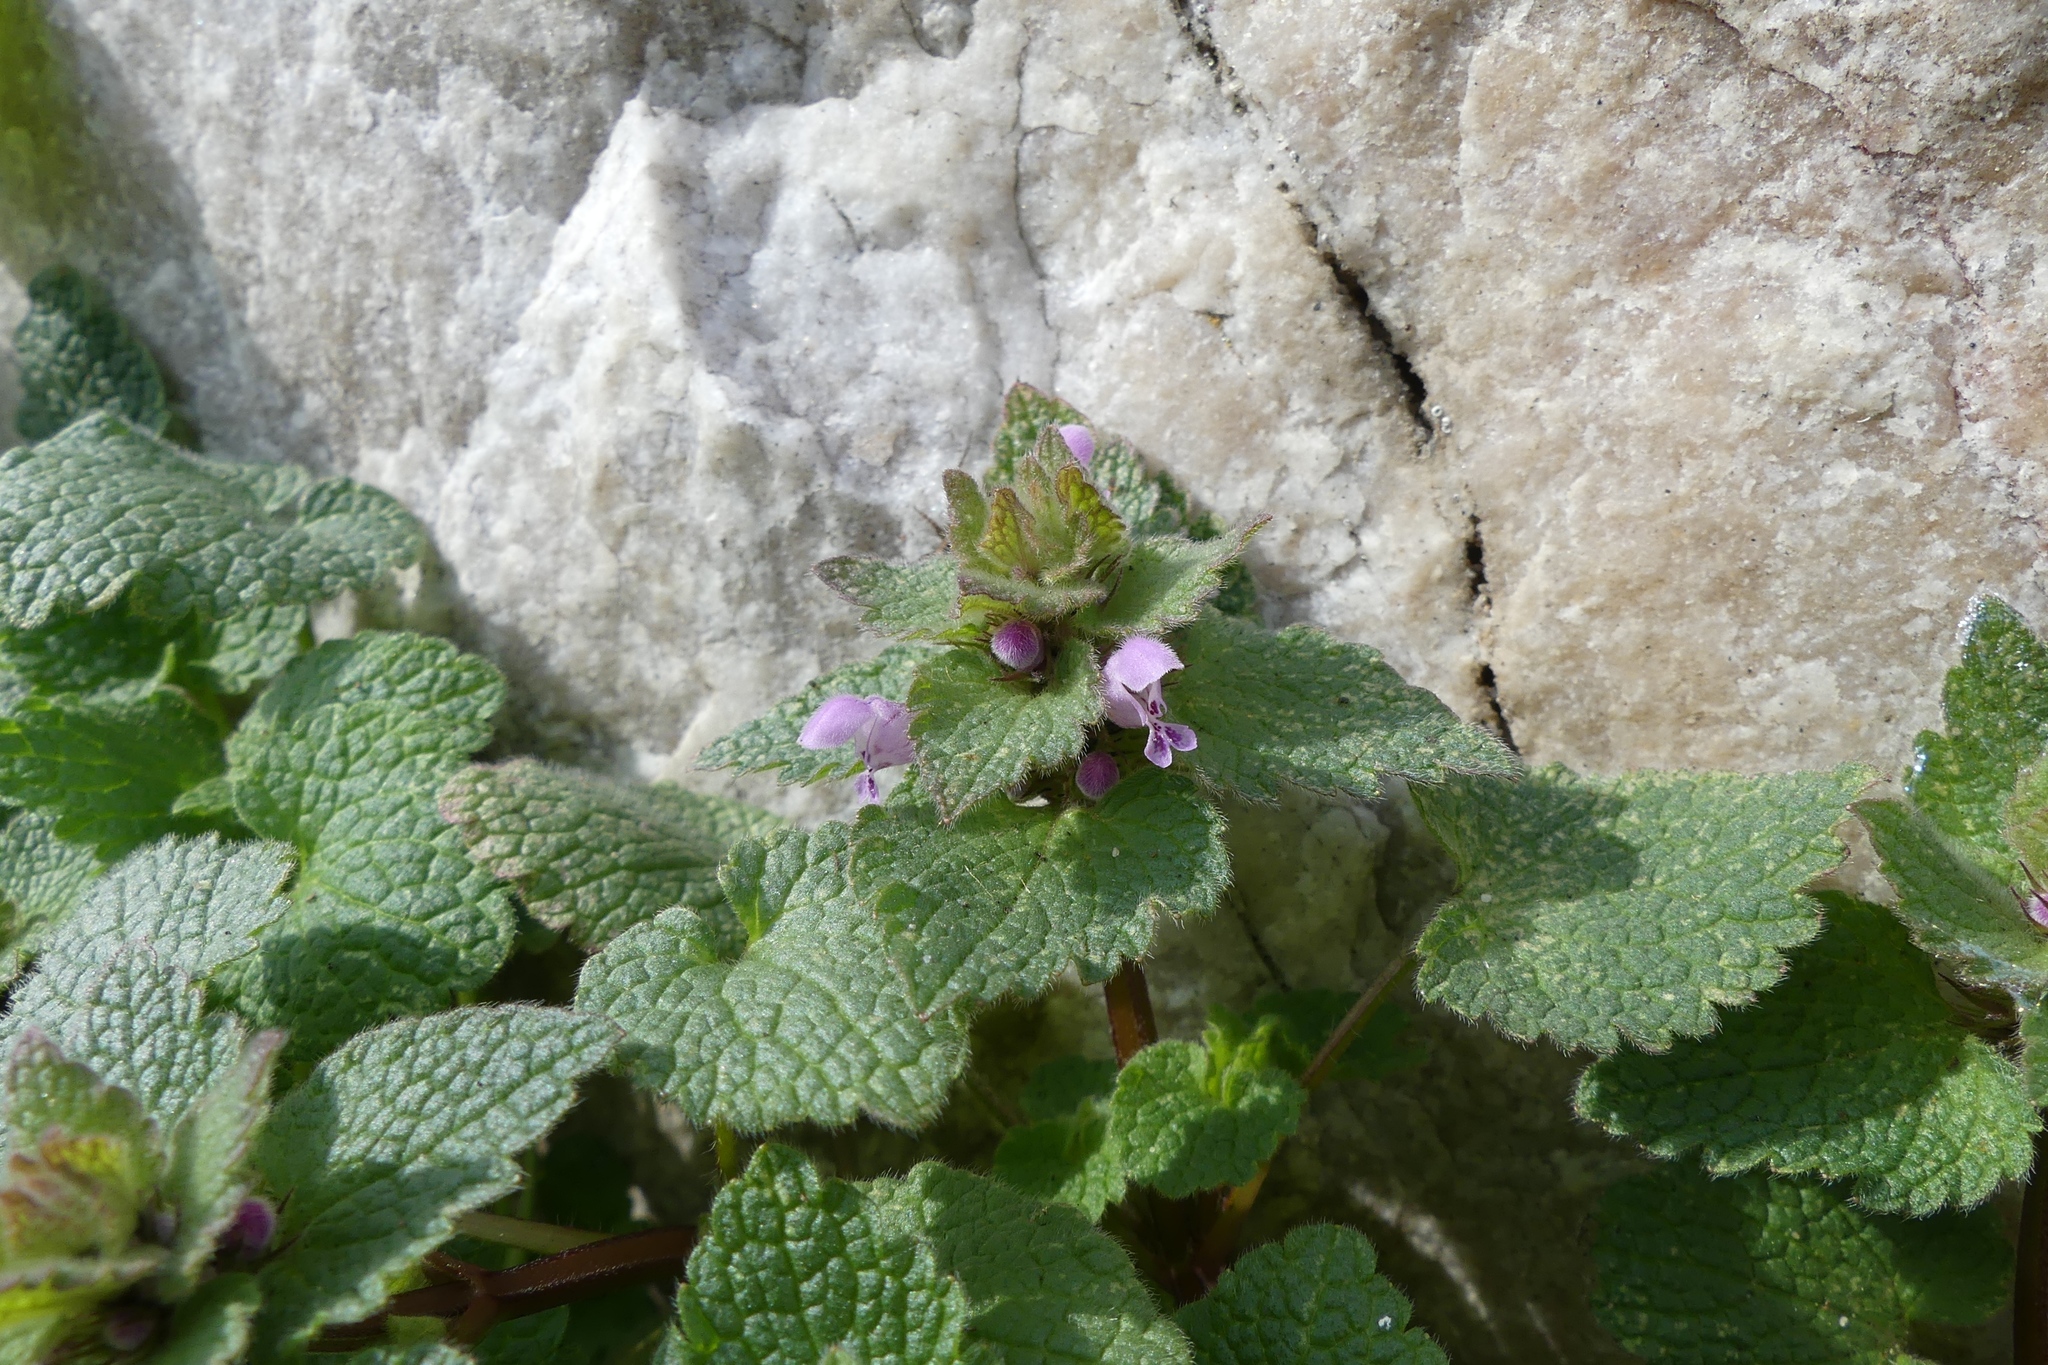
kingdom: Plantae
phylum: Tracheophyta
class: Magnoliopsida
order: Lamiales
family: Lamiaceae
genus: Lamium
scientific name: Lamium purpureum
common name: Red dead-nettle
